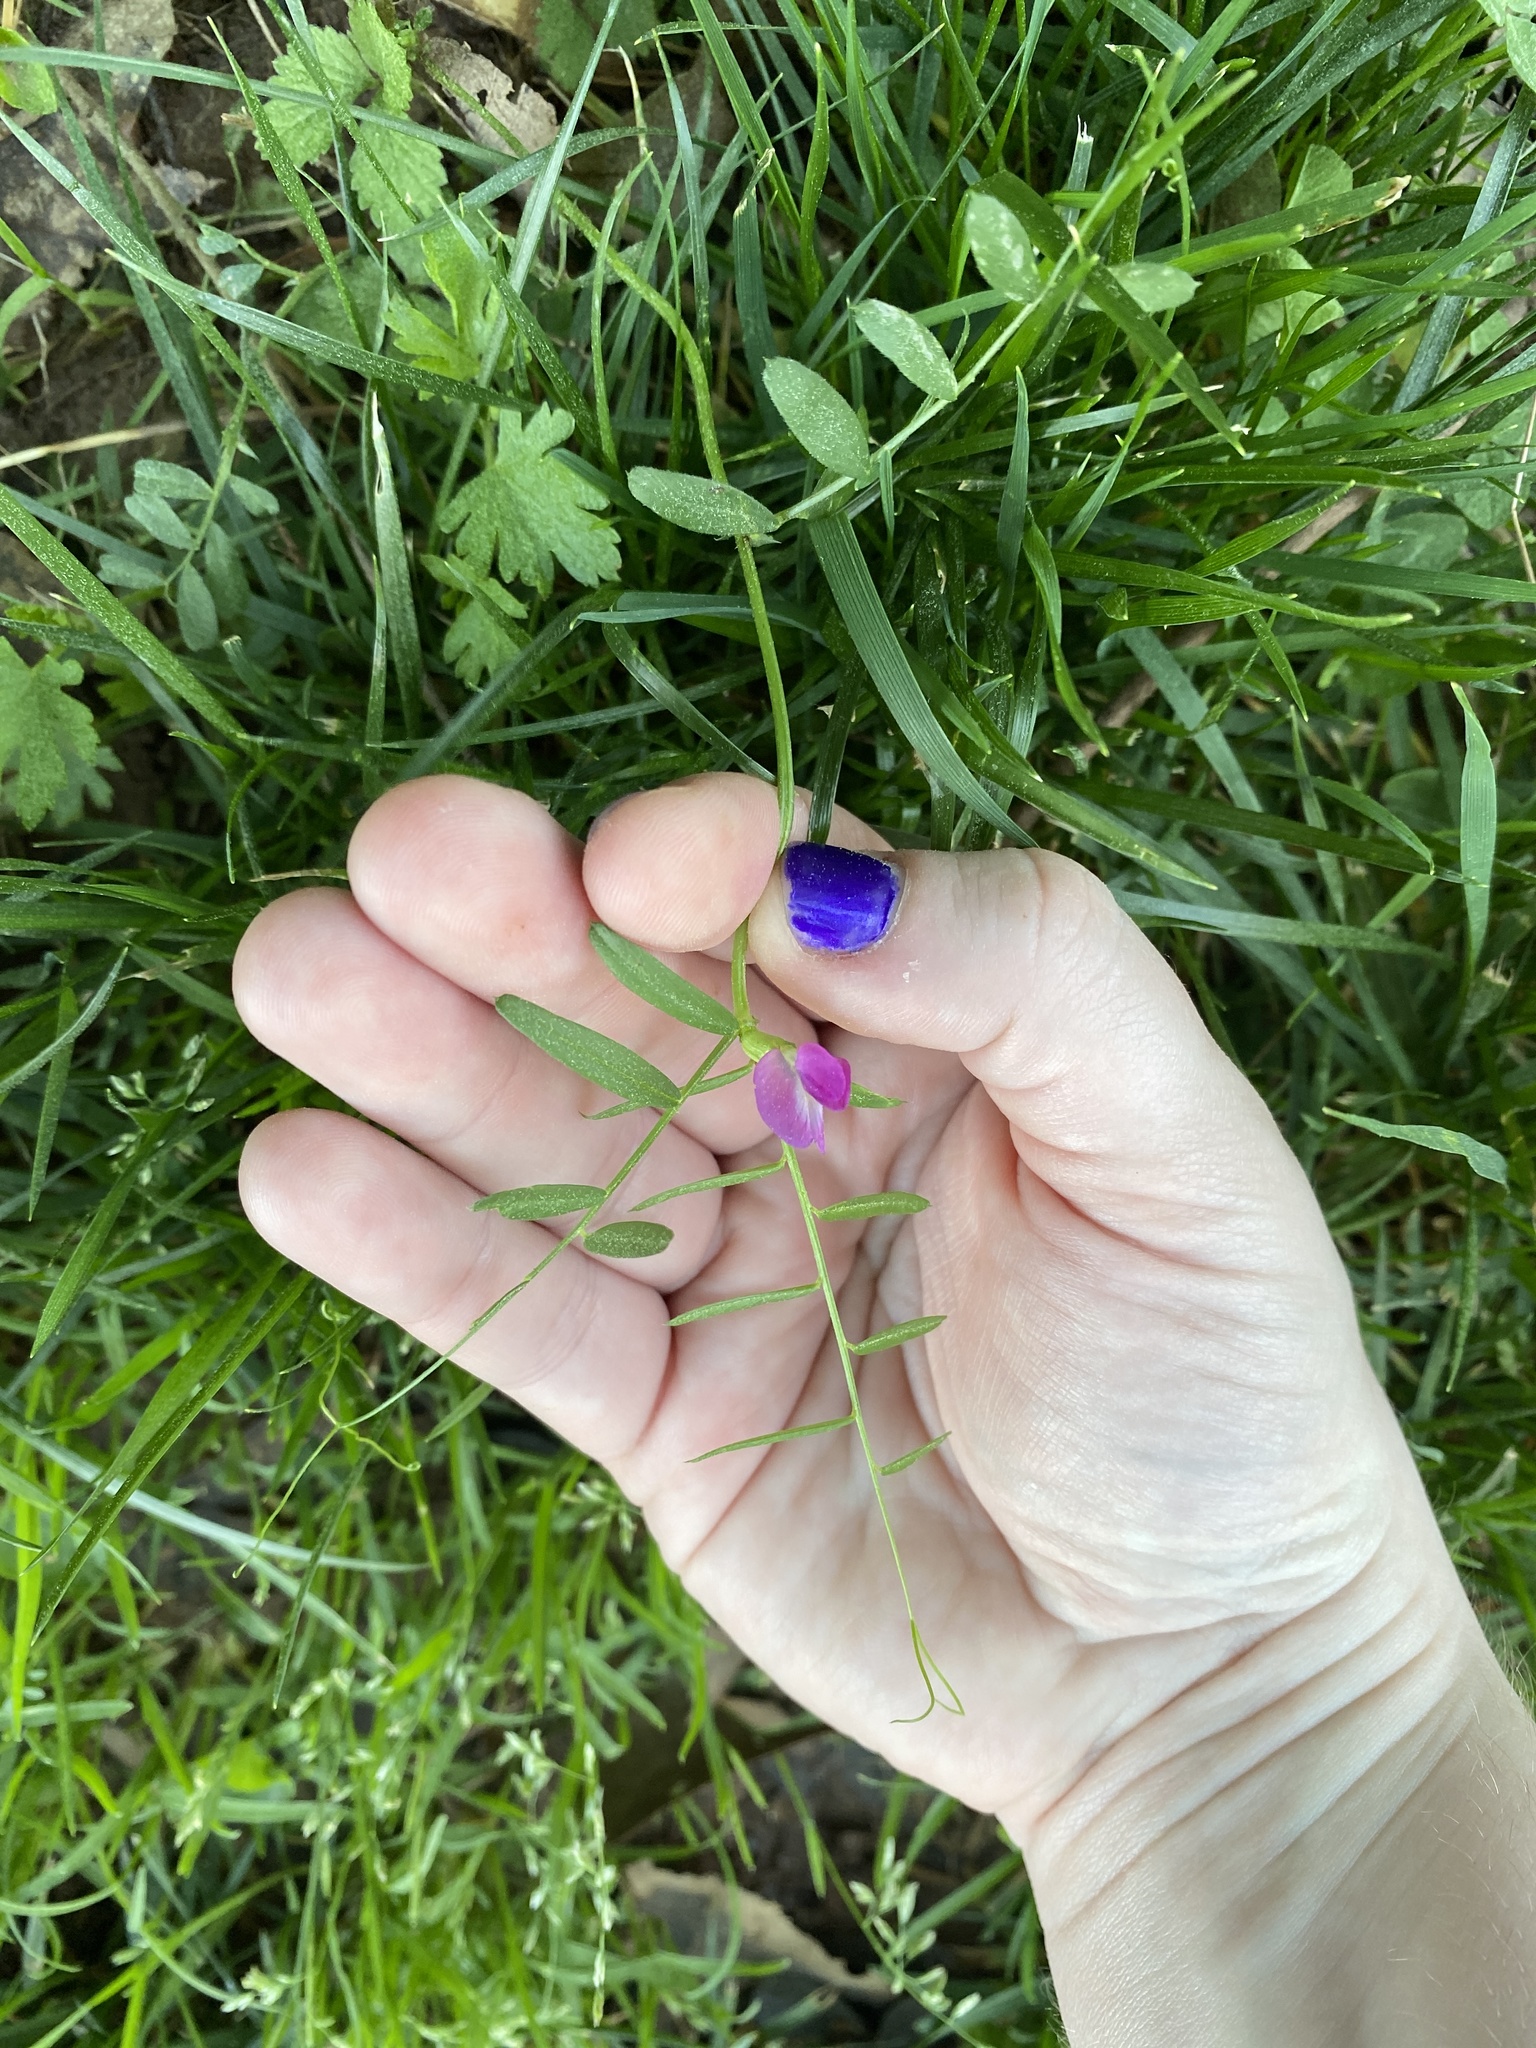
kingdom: Plantae
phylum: Tracheophyta
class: Magnoliopsida
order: Fabales
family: Fabaceae
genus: Vicia
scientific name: Vicia sativa
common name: Garden vetch
